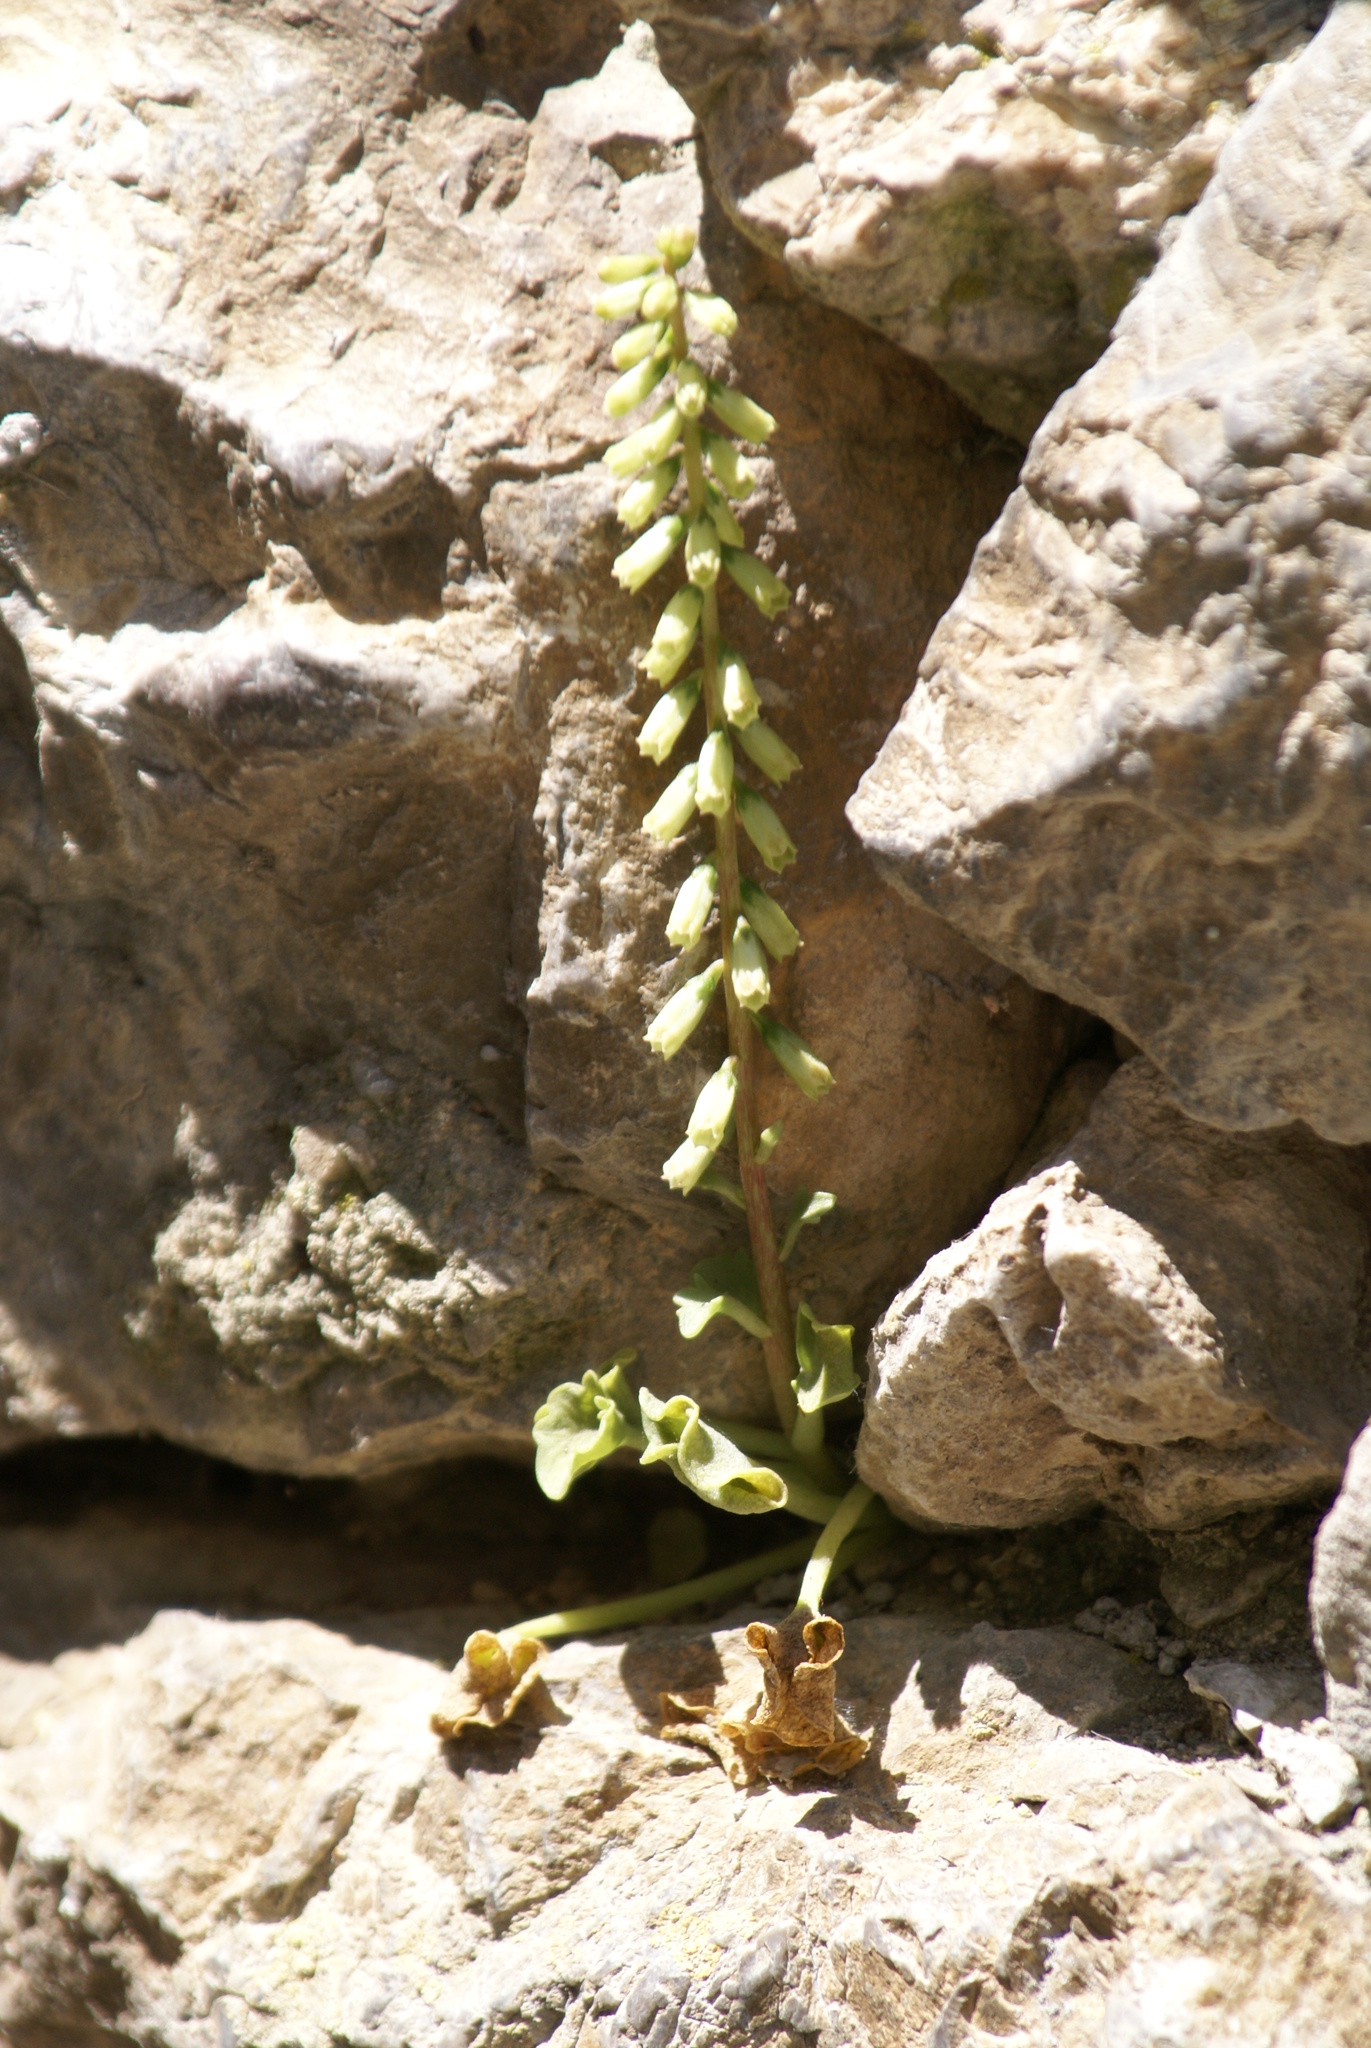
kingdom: Plantae
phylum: Tracheophyta
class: Magnoliopsida
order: Saxifragales
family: Crassulaceae
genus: Umbilicus
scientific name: Umbilicus rupestris
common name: Navelwort
